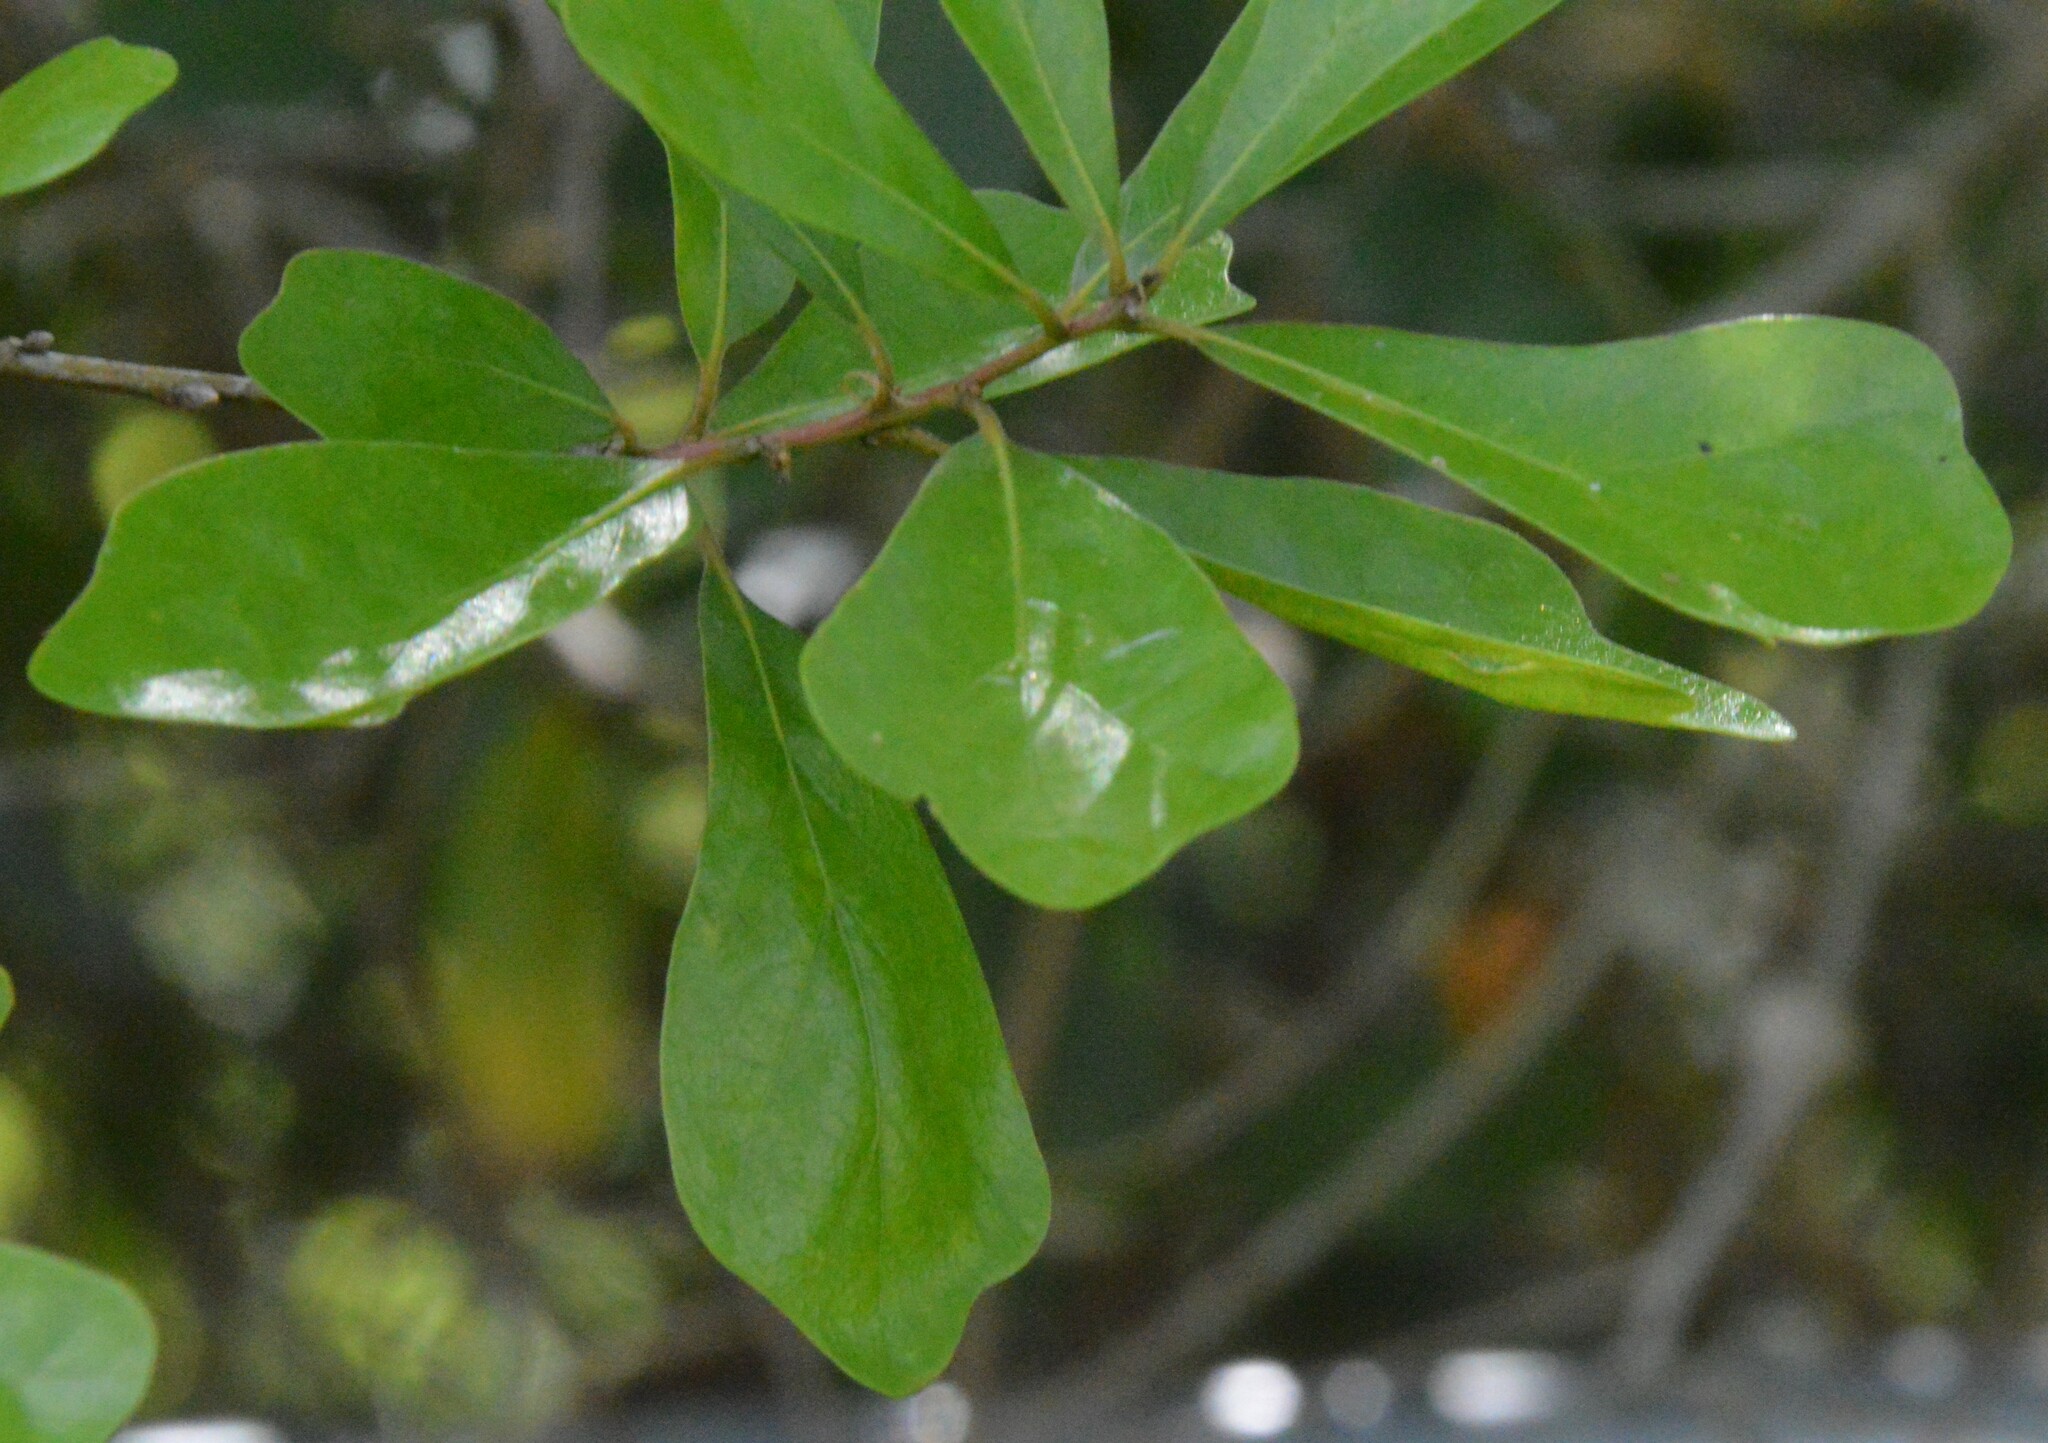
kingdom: Plantae
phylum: Tracheophyta
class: Magnoliopsida
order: Fagales
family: Fagaceae
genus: Quercus
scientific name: Quercus nigra
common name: Water oak
